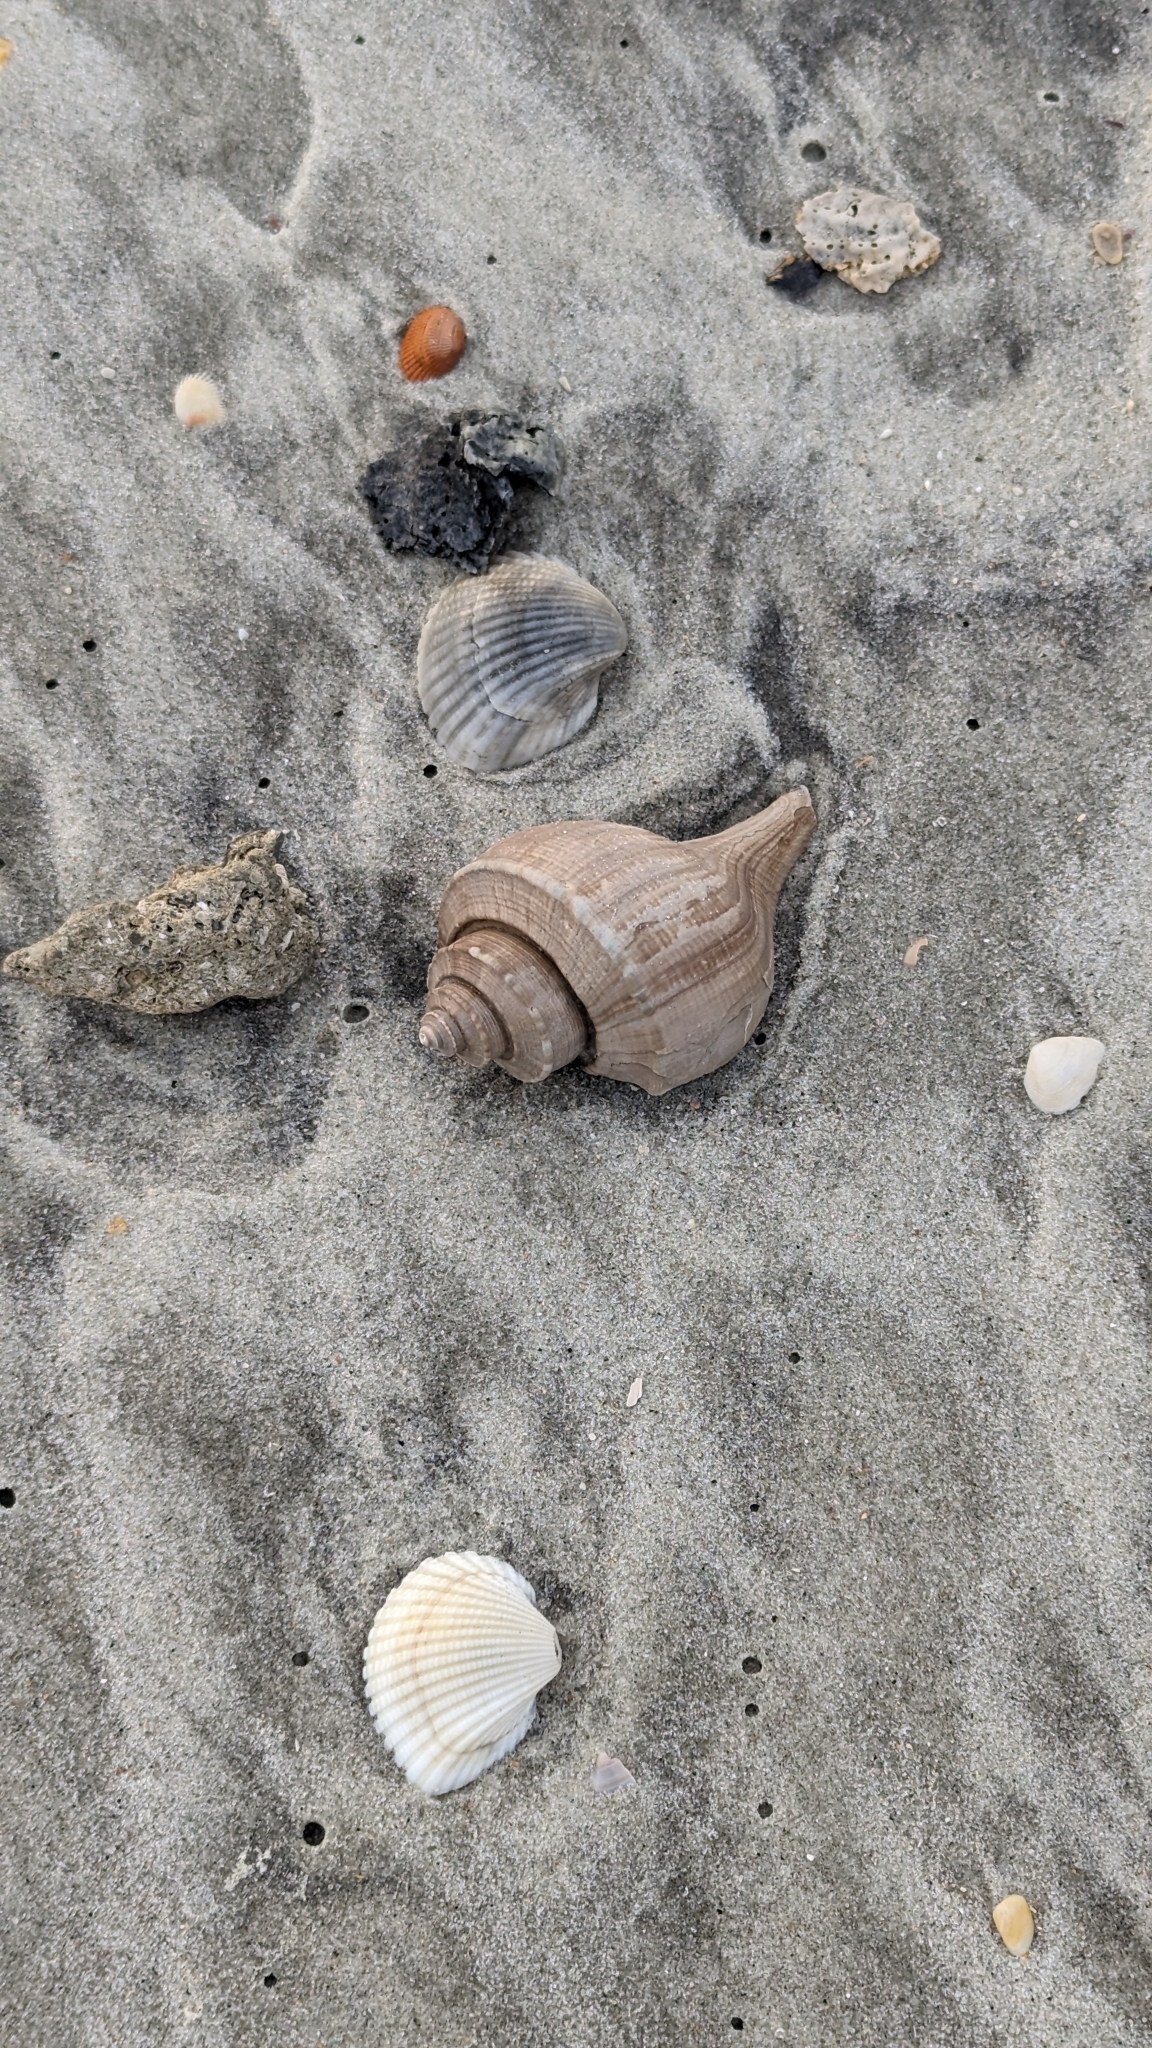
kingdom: Animalia
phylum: Mollusca
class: Gastropoda
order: Neogastropoda
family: Busyconidae
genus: Busycotypus
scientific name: Busycotypus canaliculatus
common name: Channeled whelk
